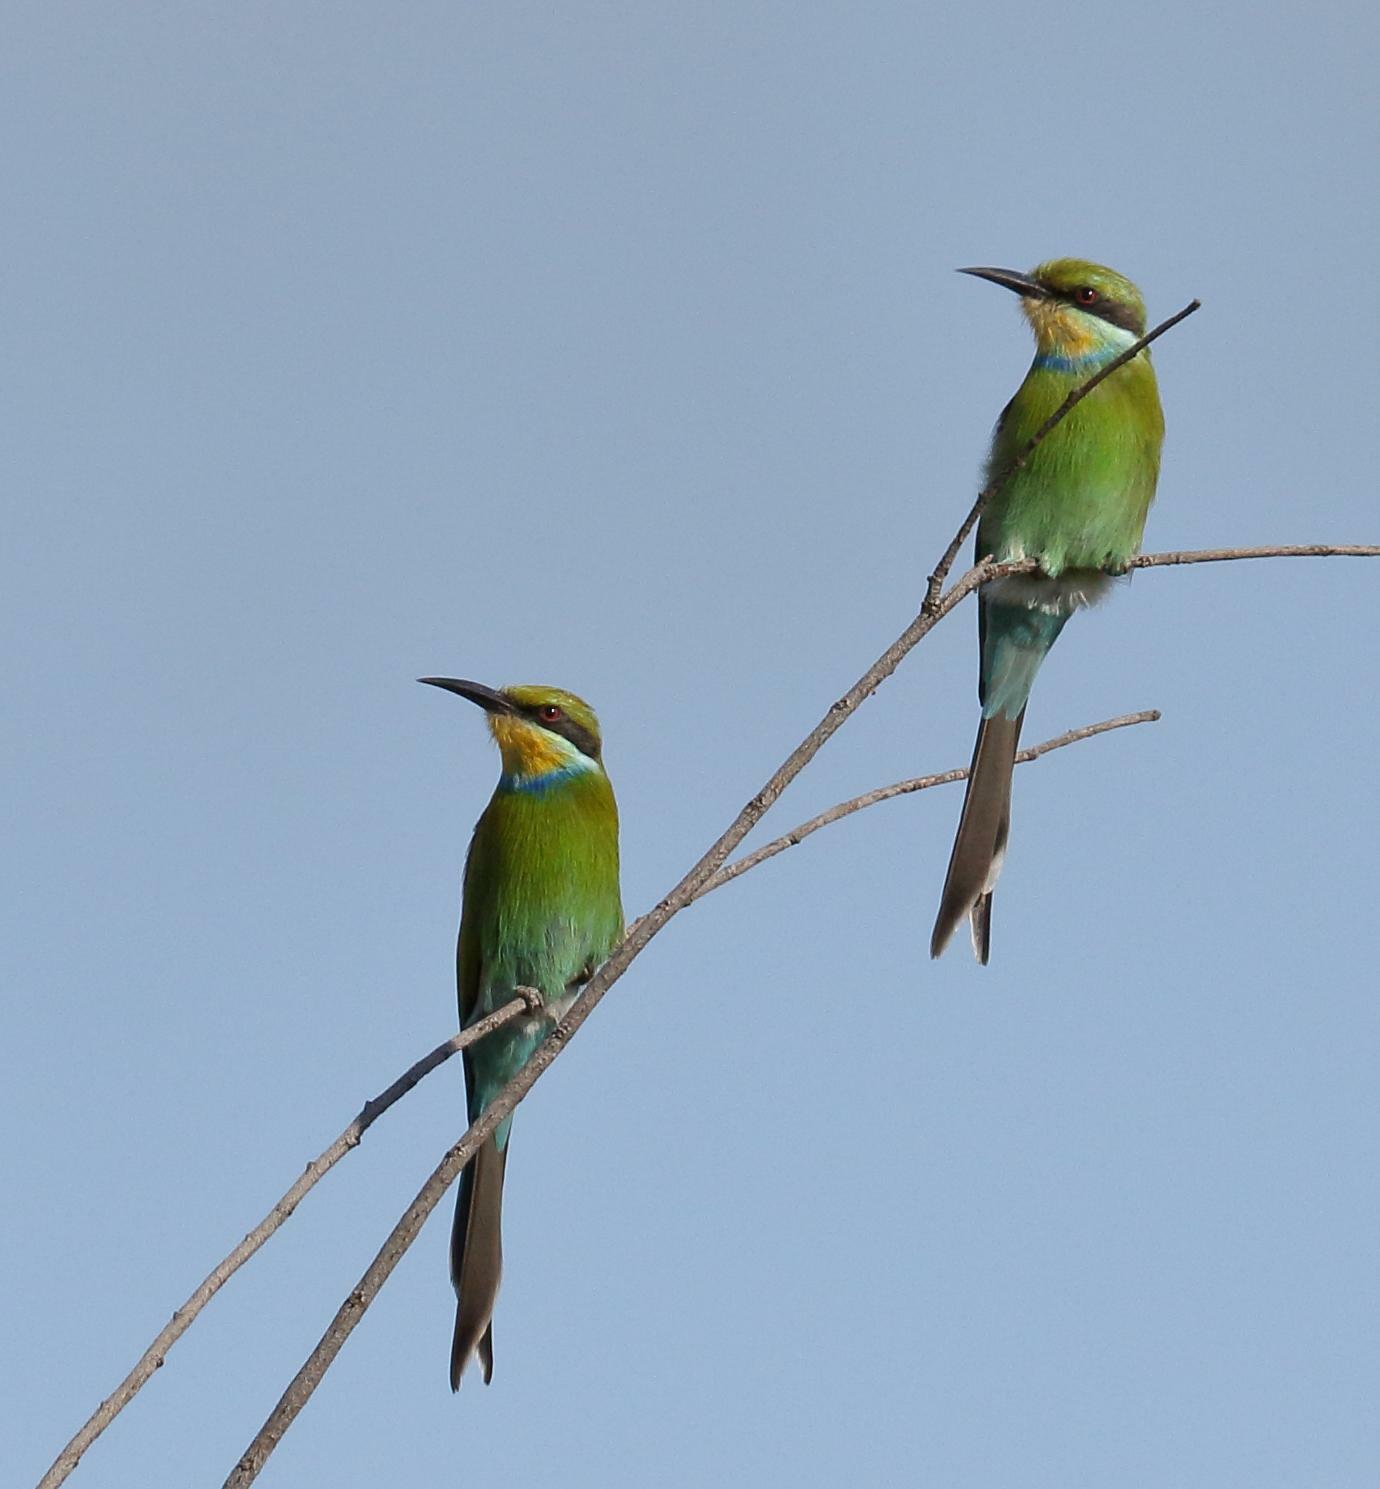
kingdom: Animalia
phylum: Chordata
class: Aves
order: Coraciiformes
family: Meropidae
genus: Merops
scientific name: Merops hirundineus
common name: Swallow-tailed bee-eater
